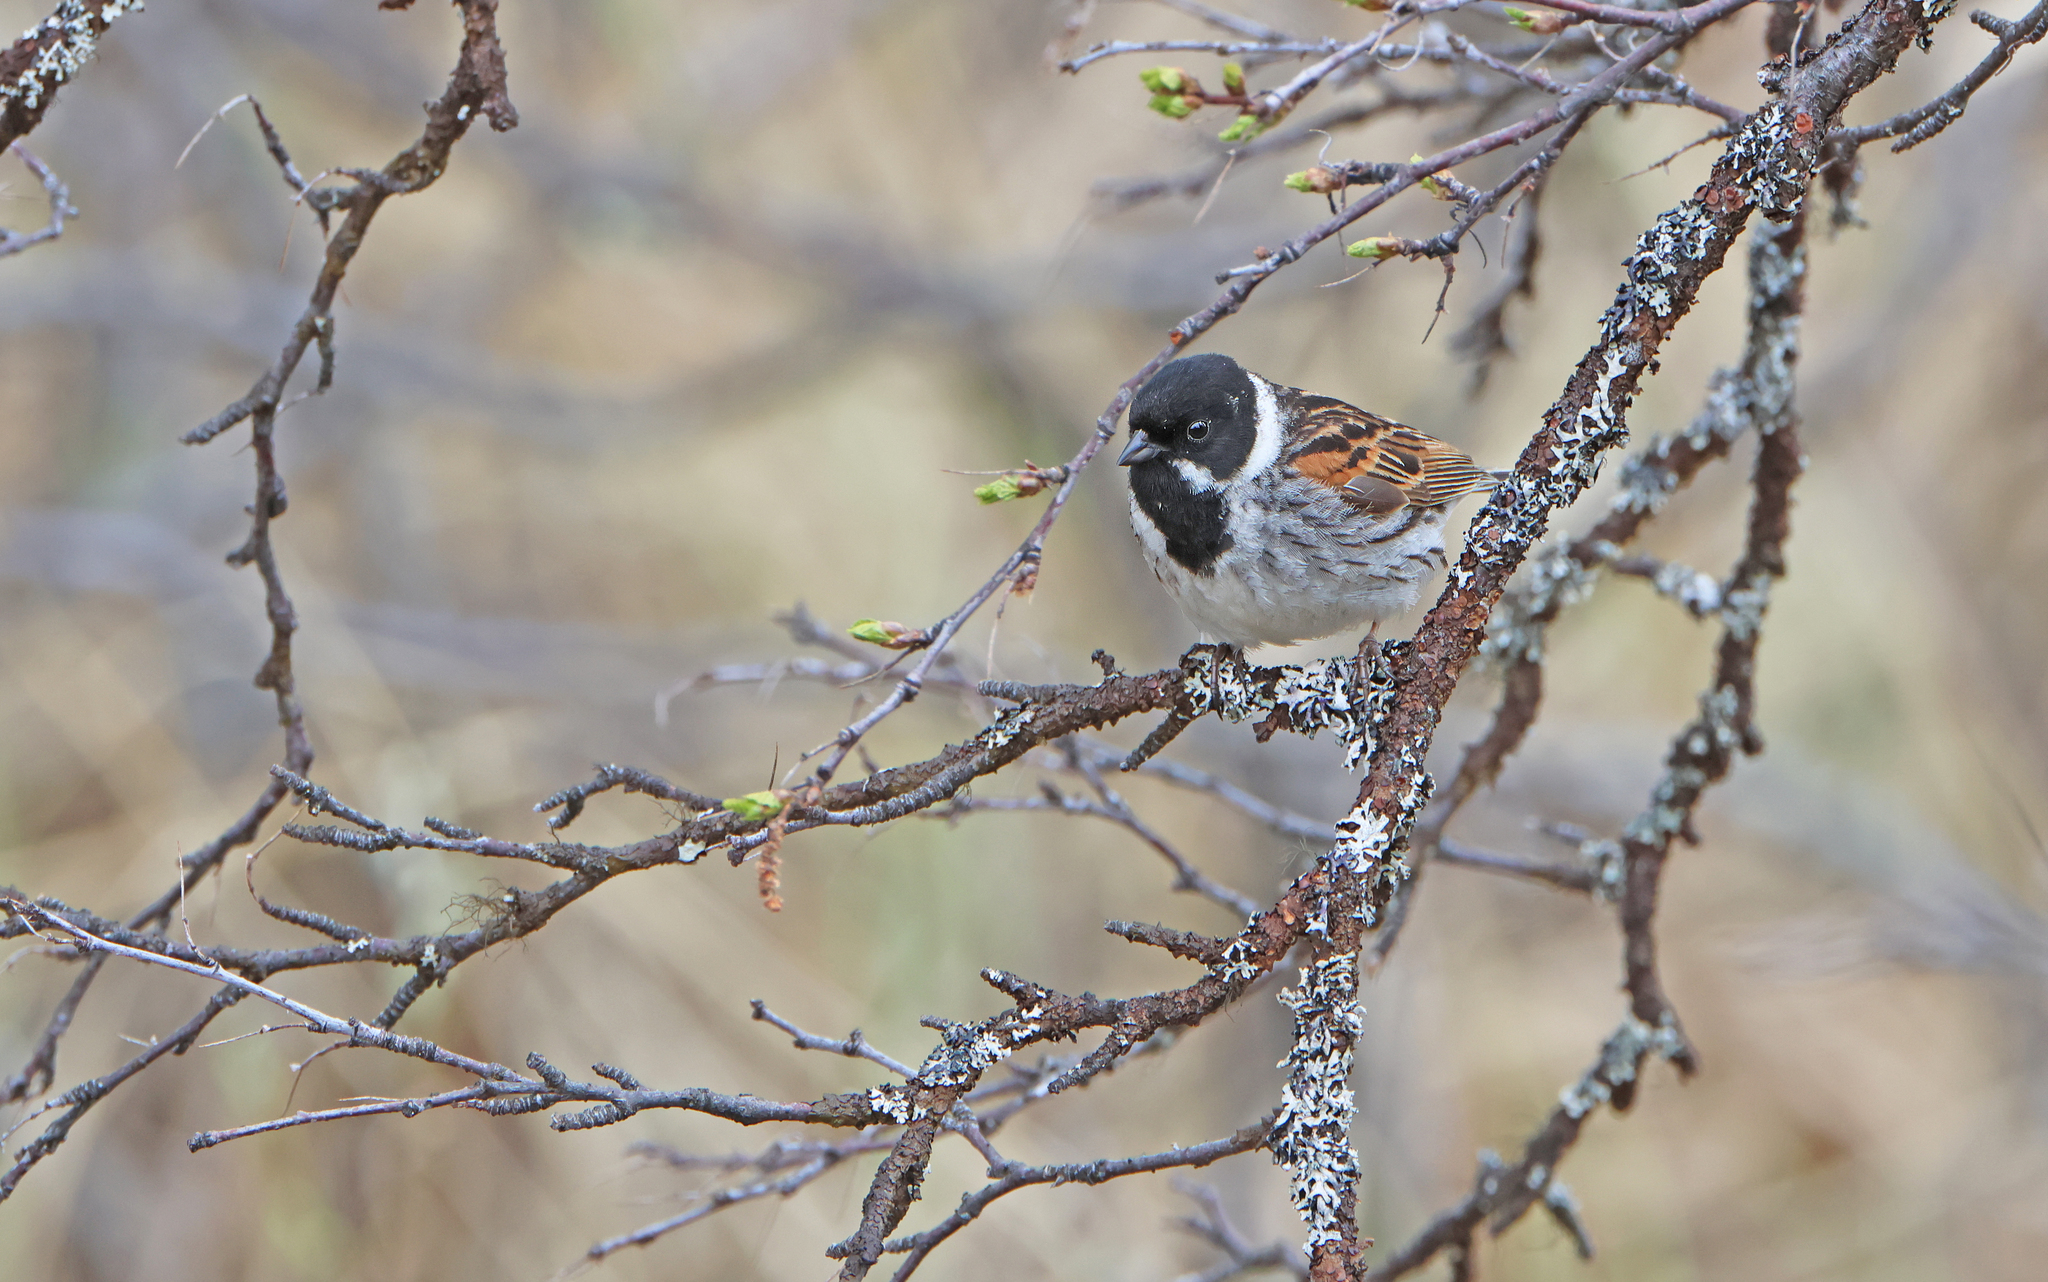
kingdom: Animalia
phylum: Chordata
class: Aves
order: Passeriformes
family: Emberizidae
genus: Emberiza
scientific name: Emberiza schoeniclus
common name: Reed bunting
